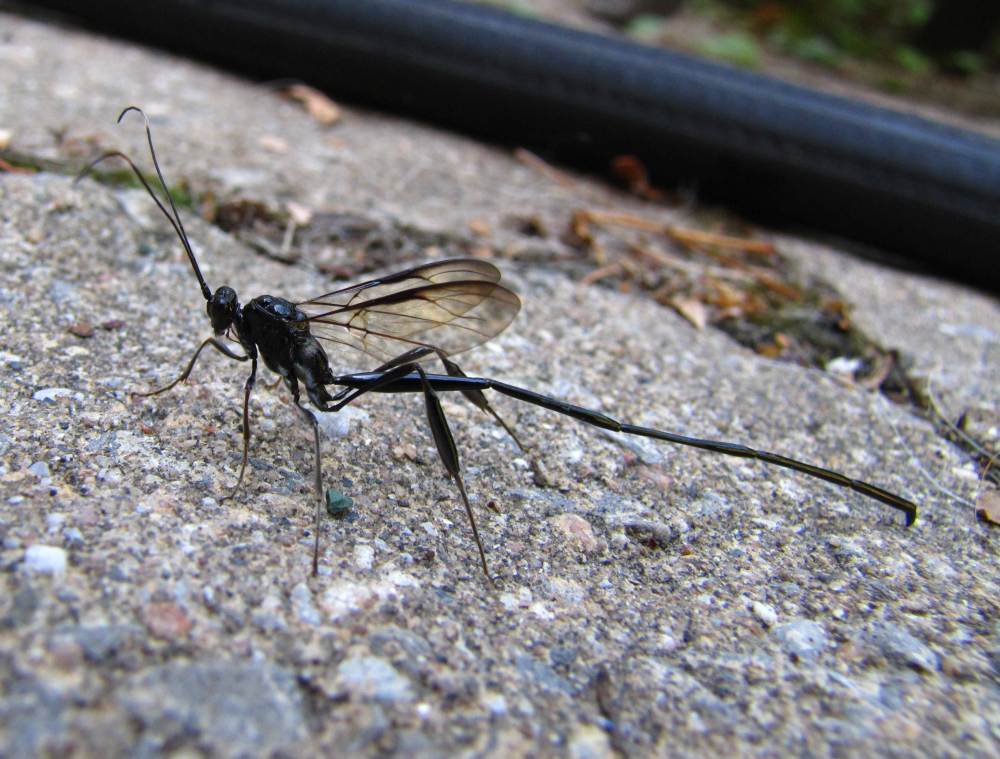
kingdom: Animalia
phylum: Arthropoda
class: Insecta
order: Hymenoptera
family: Pelecinidae
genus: Pelecinus
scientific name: Pelecinus polyturator
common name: American pelecinid wasp
